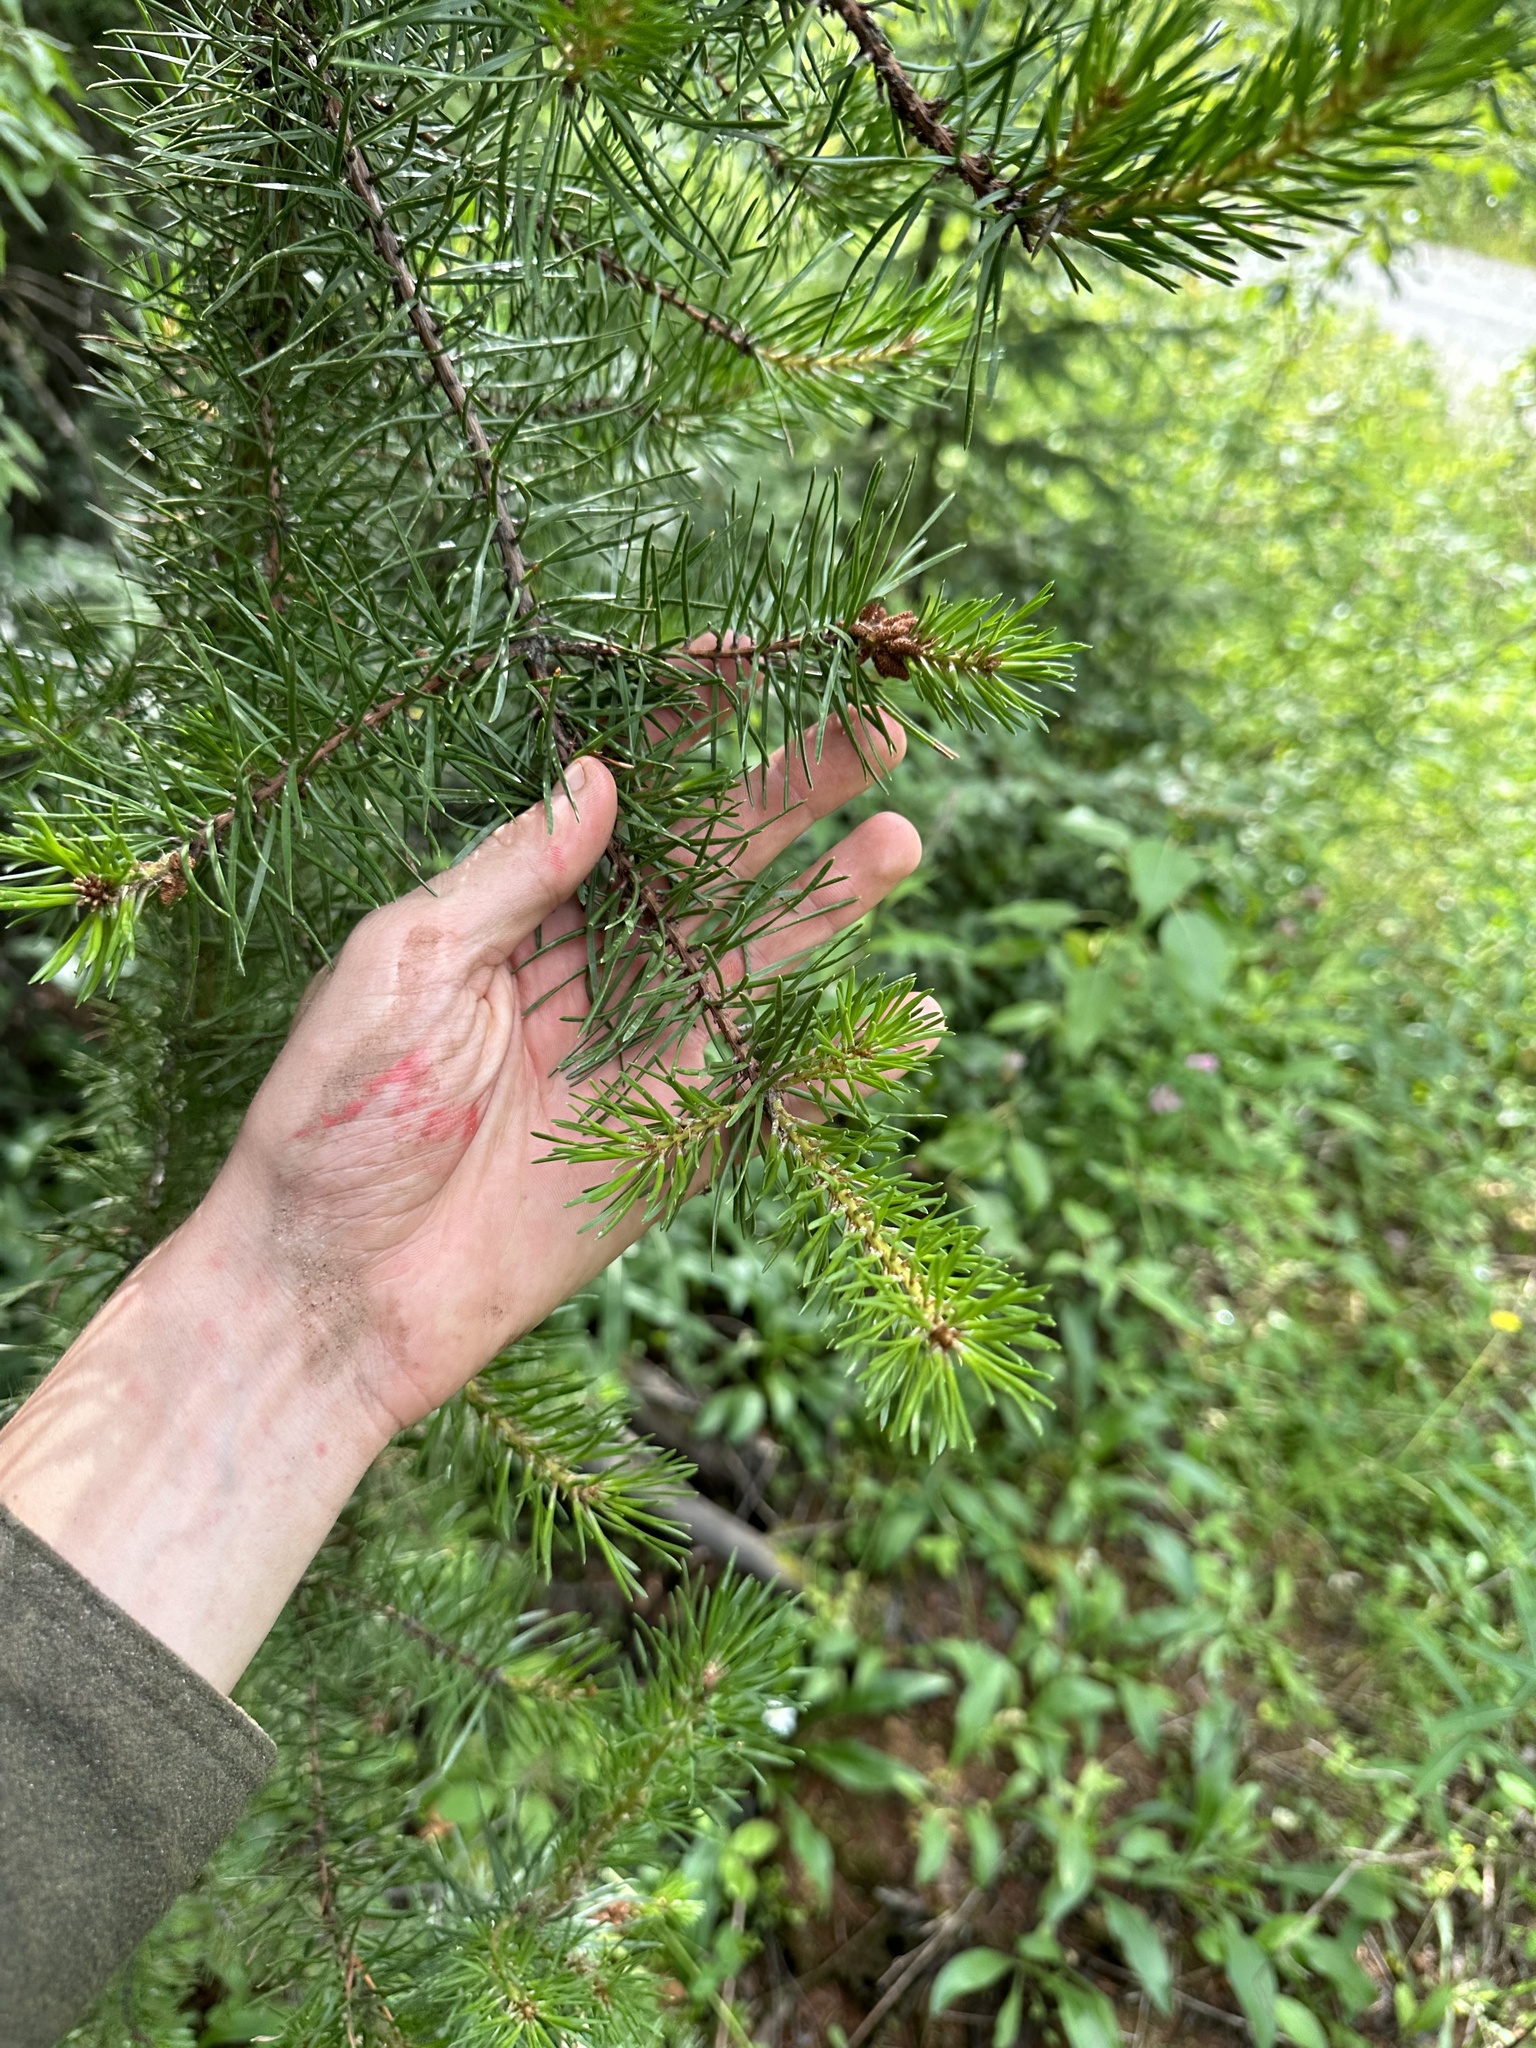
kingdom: Plantae
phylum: Tracheophyta
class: Pinopsida
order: Pinales
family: Pinaceae
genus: Pinus
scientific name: Pinus banksiana
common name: Jack pine
